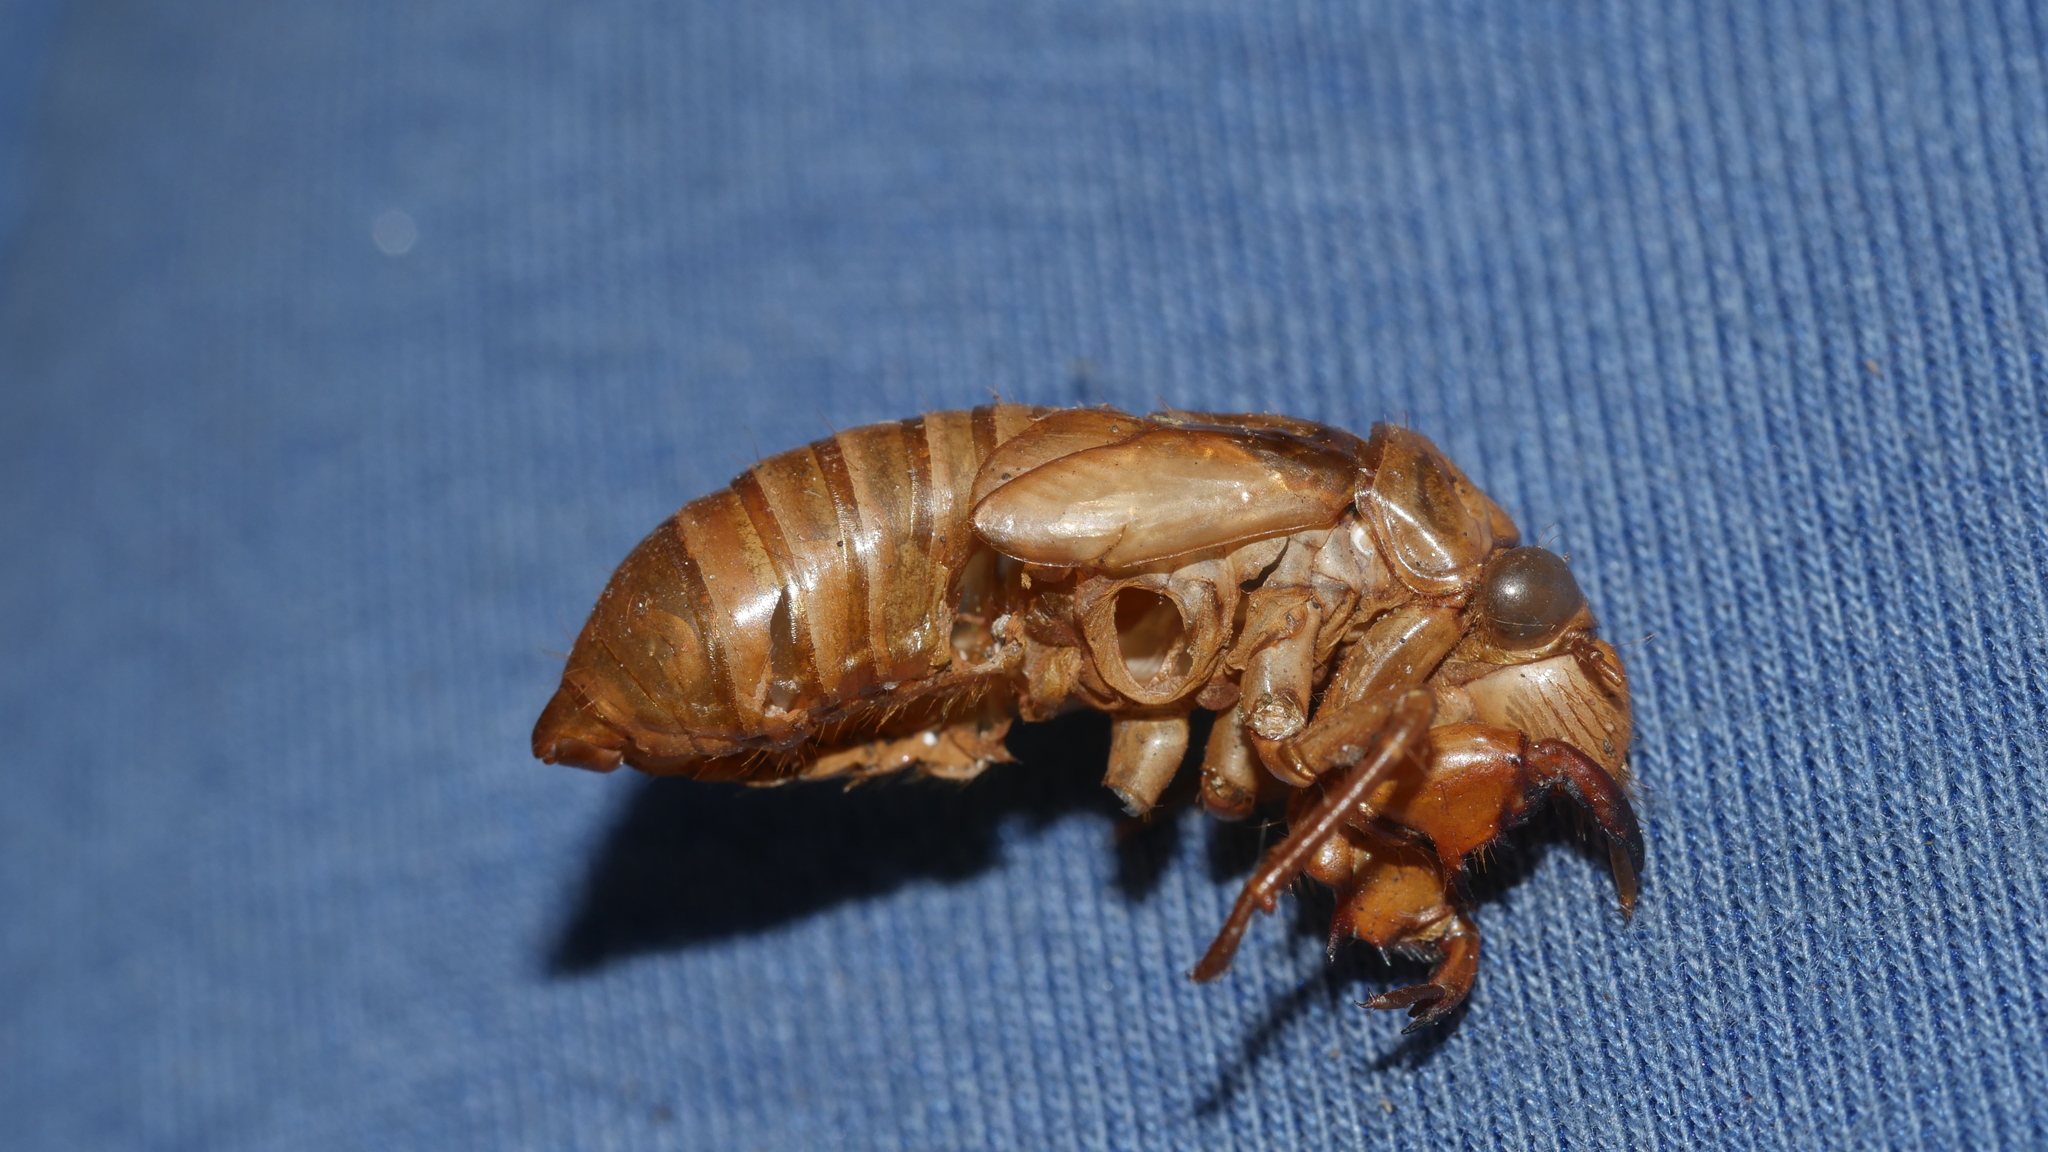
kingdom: Animalia
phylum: Arthropoda
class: Insecta
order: Hemiptera
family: Cicadidae
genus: Magicicada
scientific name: Magicicada
